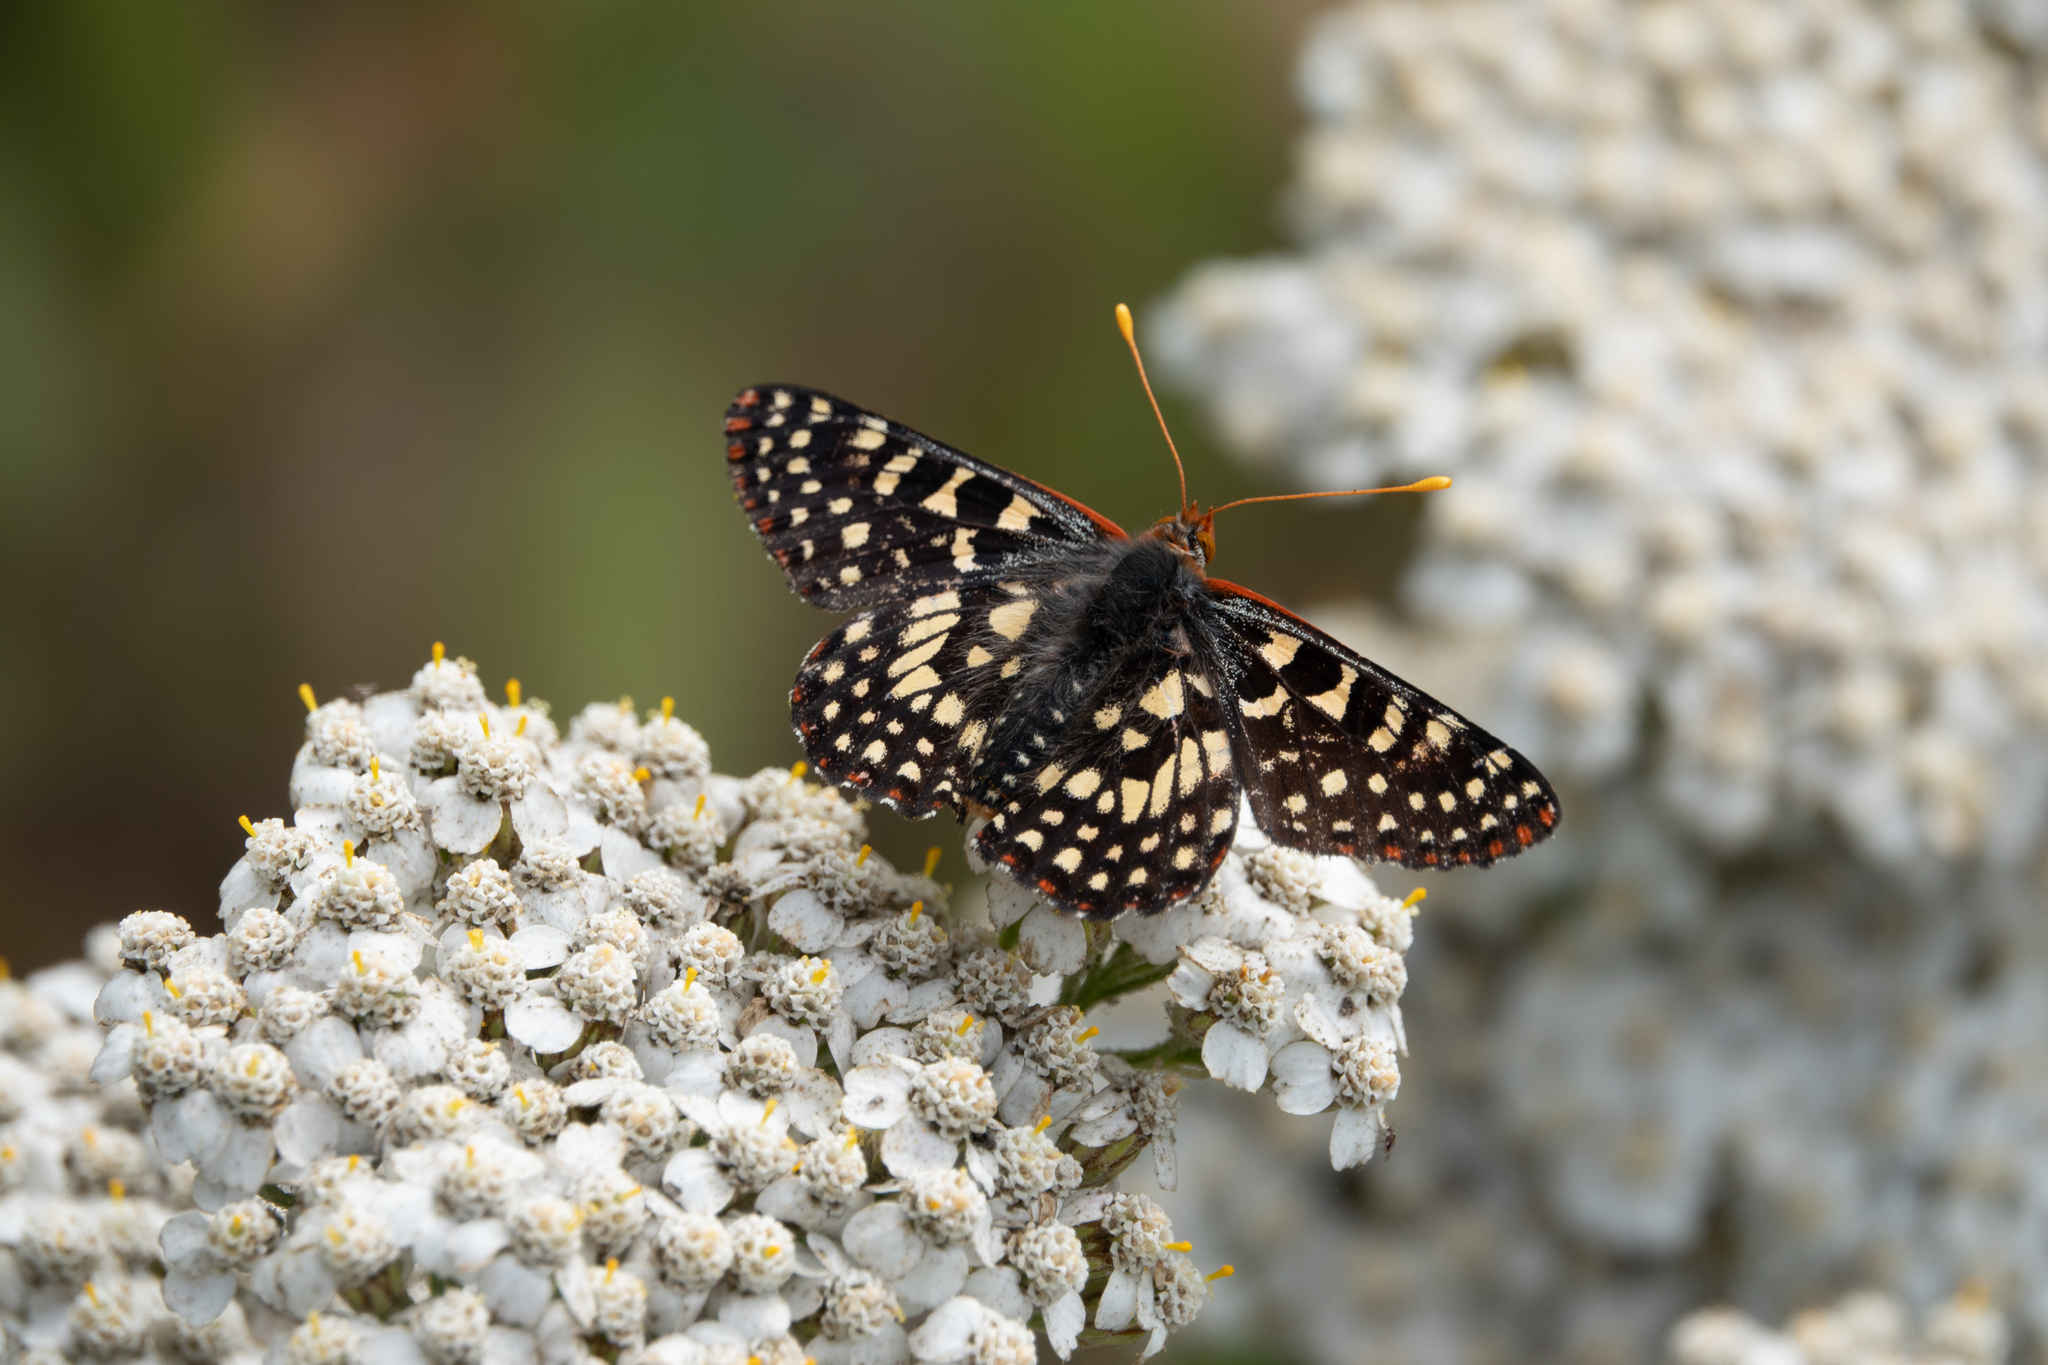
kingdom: Animalia
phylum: Arthropoda
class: Insecta
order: Lepidoptera
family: Nymphalidae
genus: Occidryas
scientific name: Occidryas chalcedona
